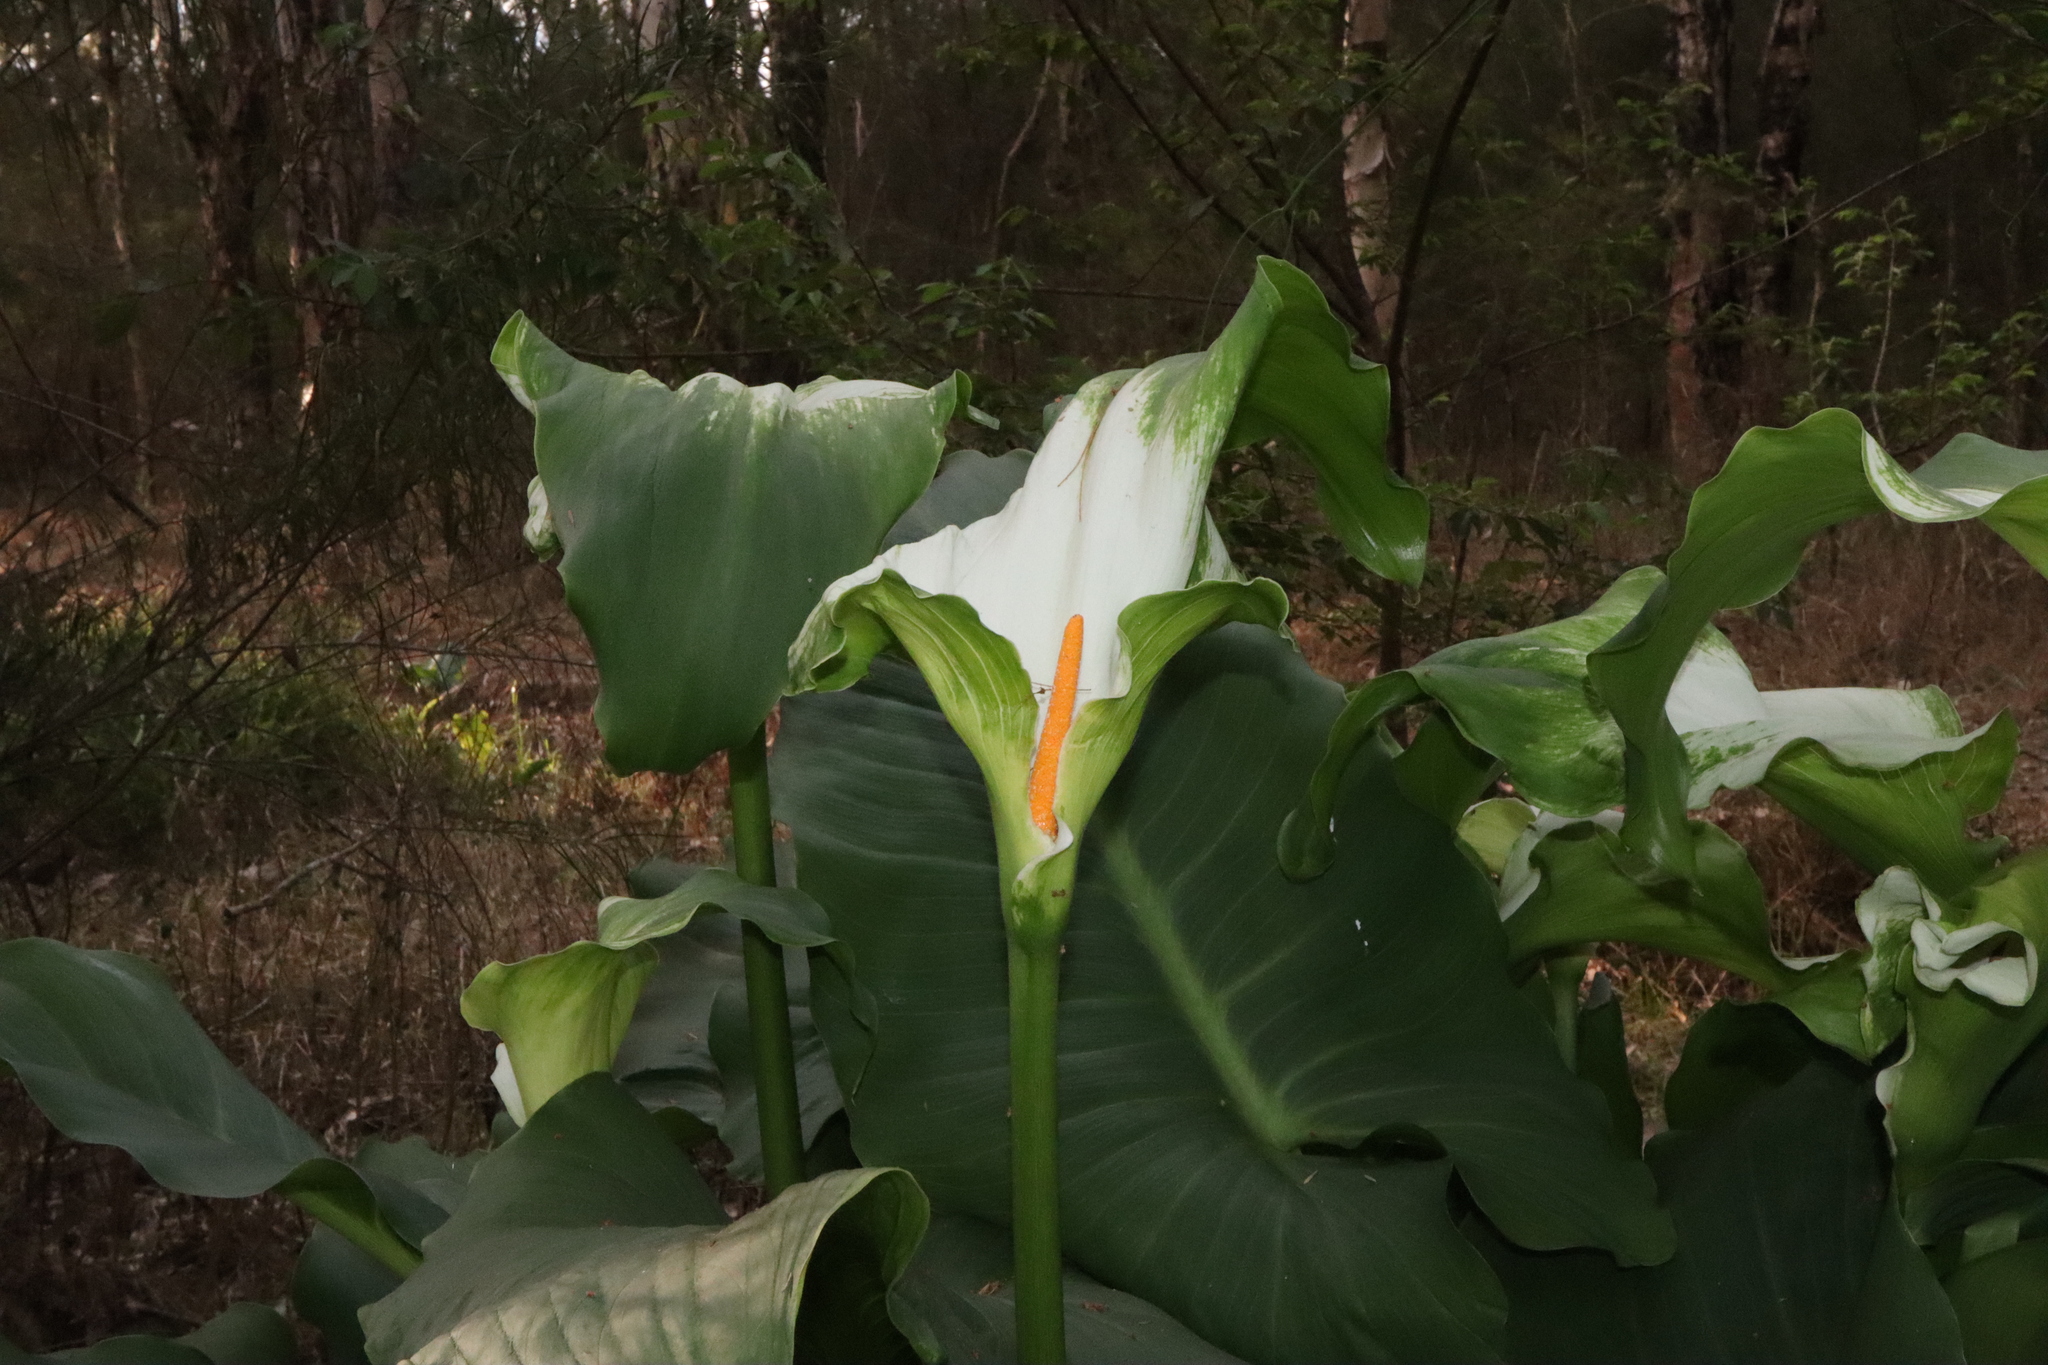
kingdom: Plantae
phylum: Tracheophyta
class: Liliopsida
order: Alismatales
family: Araceae
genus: Zantedeschia
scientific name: Zantedeschia aethiopica
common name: Altar-lily
